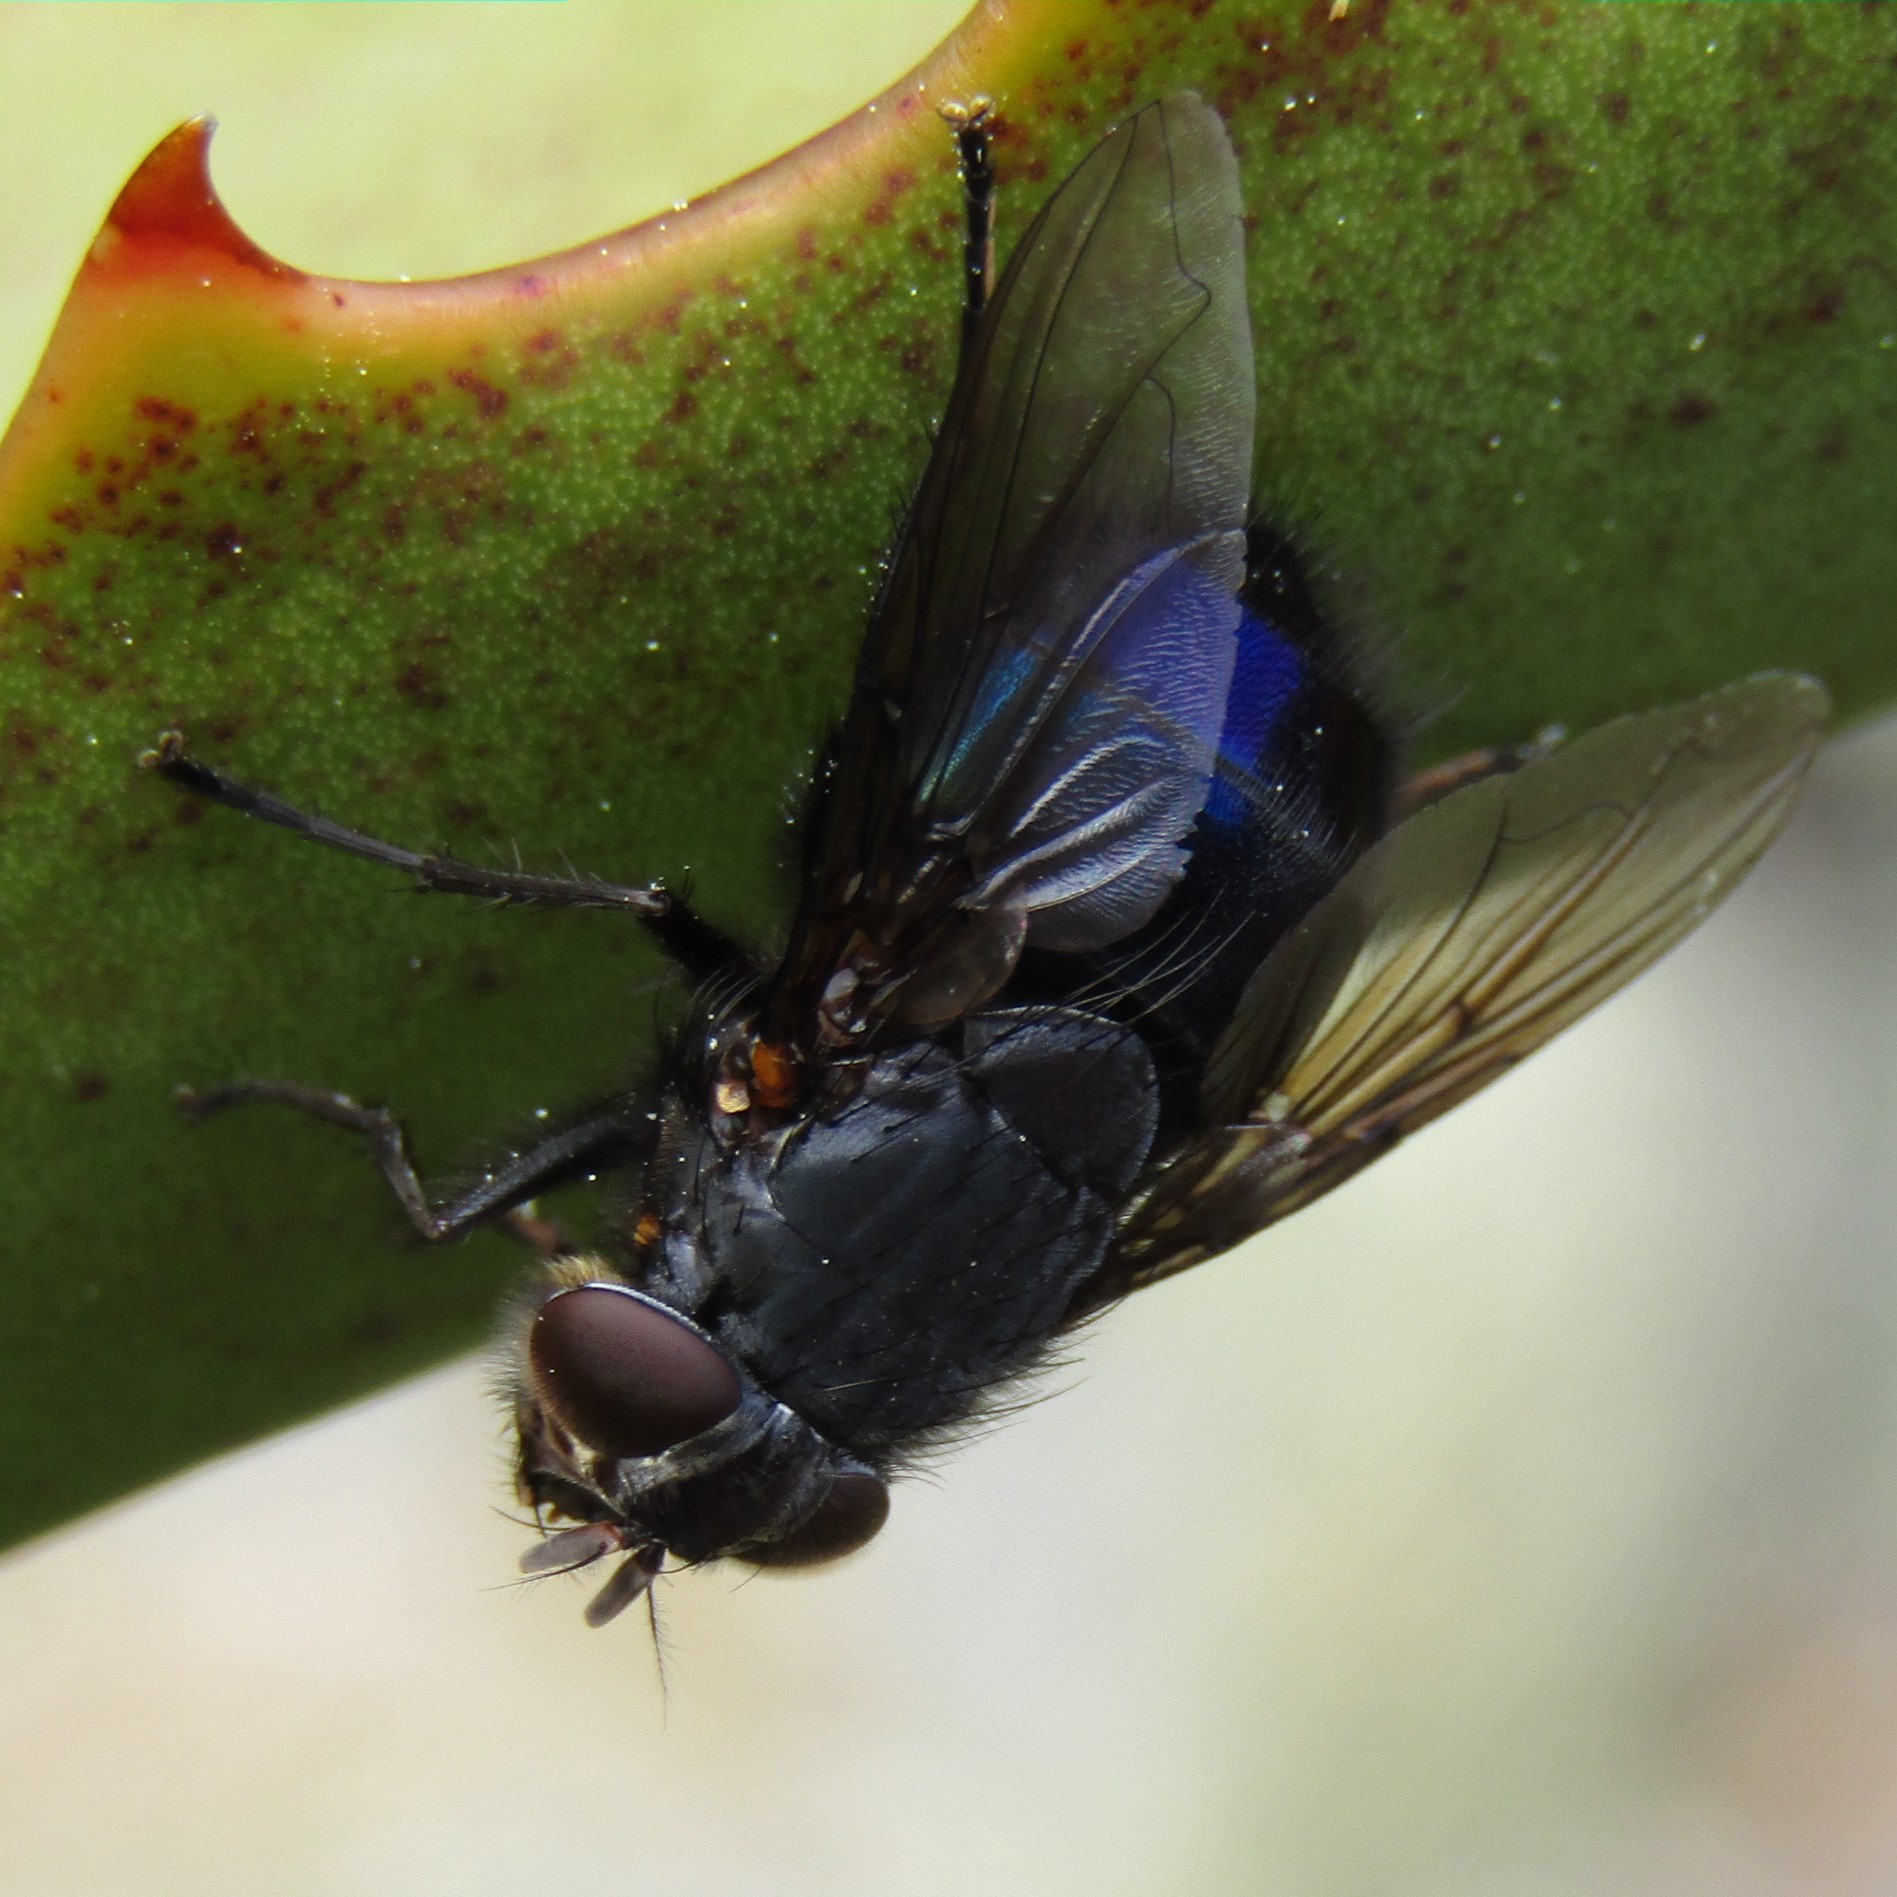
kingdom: Animalia
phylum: Arthropoda
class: Insecta
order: Diptera
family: Calliphoridae
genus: Calliphora
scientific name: Calliphora quadrimaculata
